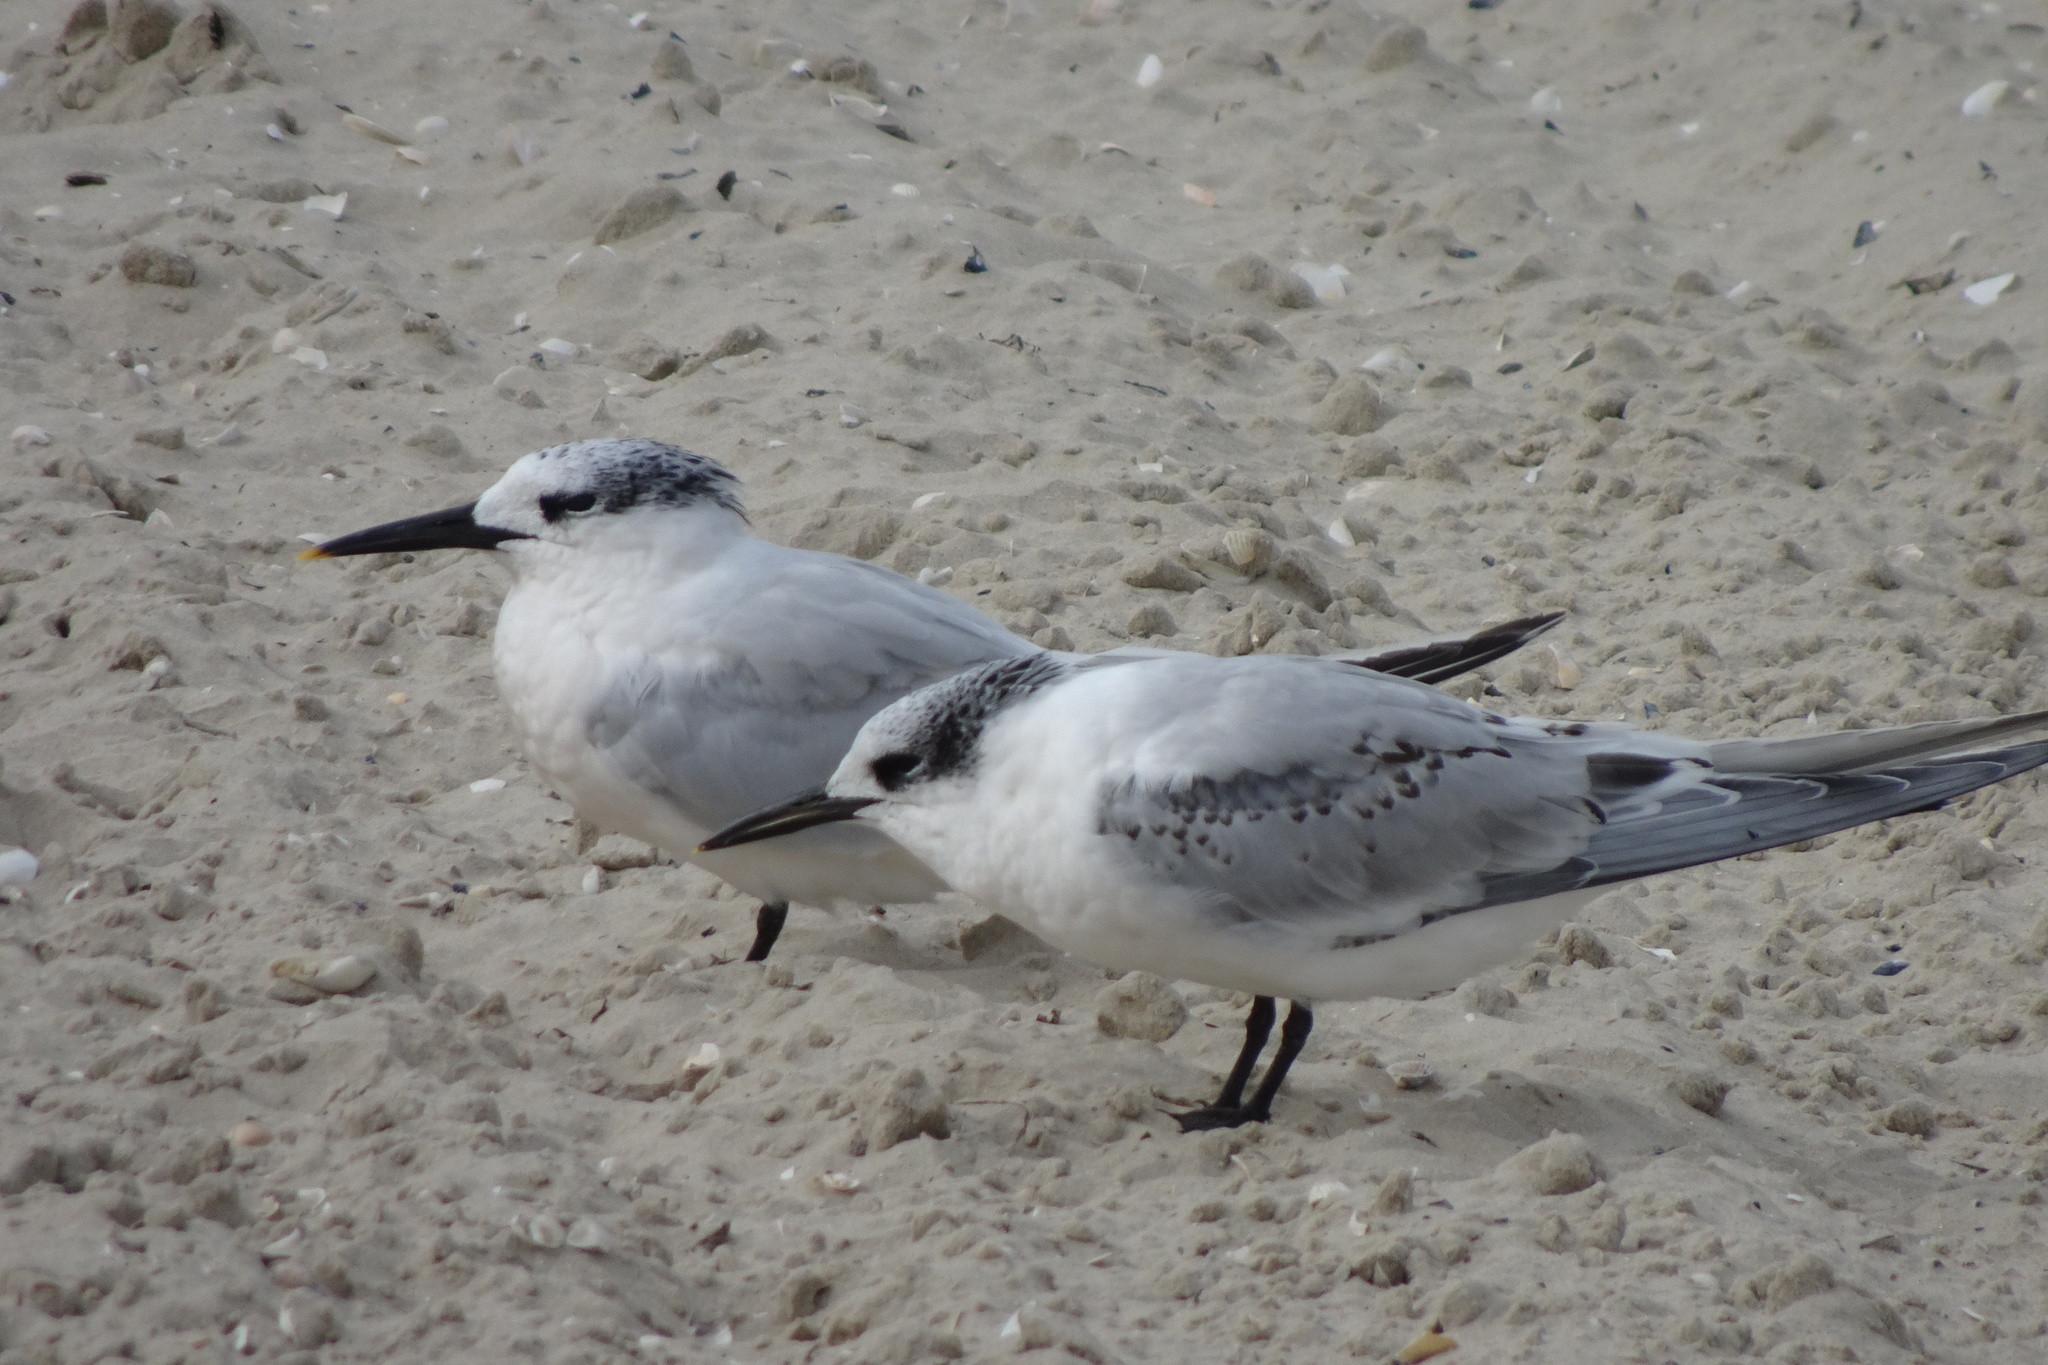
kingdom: Animalia
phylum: Chordata
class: Aves
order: Charadriiformes
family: Laridae
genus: Thalasseus
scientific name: Thalasseus sandvicensis
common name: Sandwich tern
